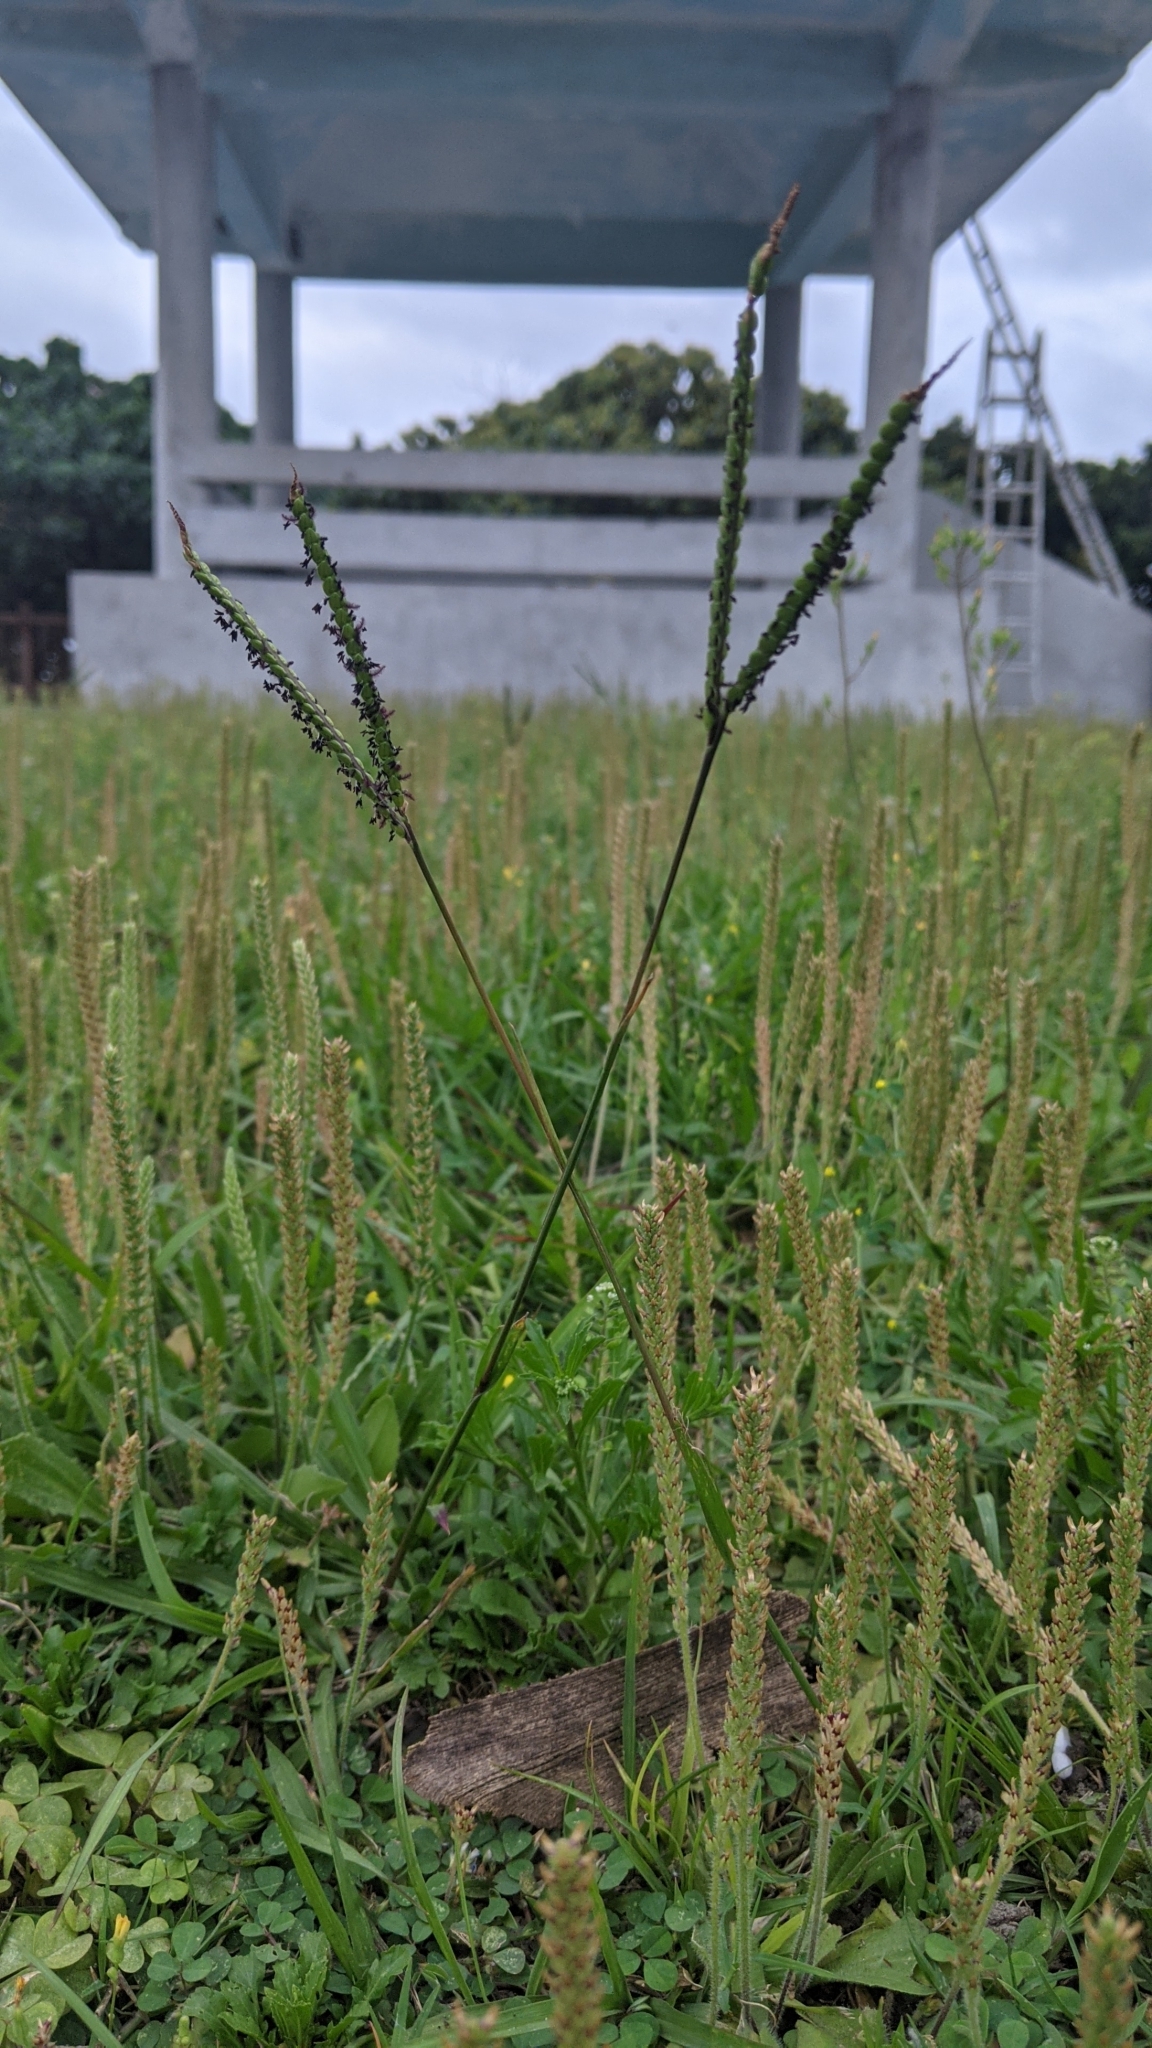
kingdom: Plantae
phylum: Tracheophyta
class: Liliopsida
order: Poales
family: Poaceae
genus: Paspalum
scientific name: Paspalum notatum
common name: Bahiagrass
